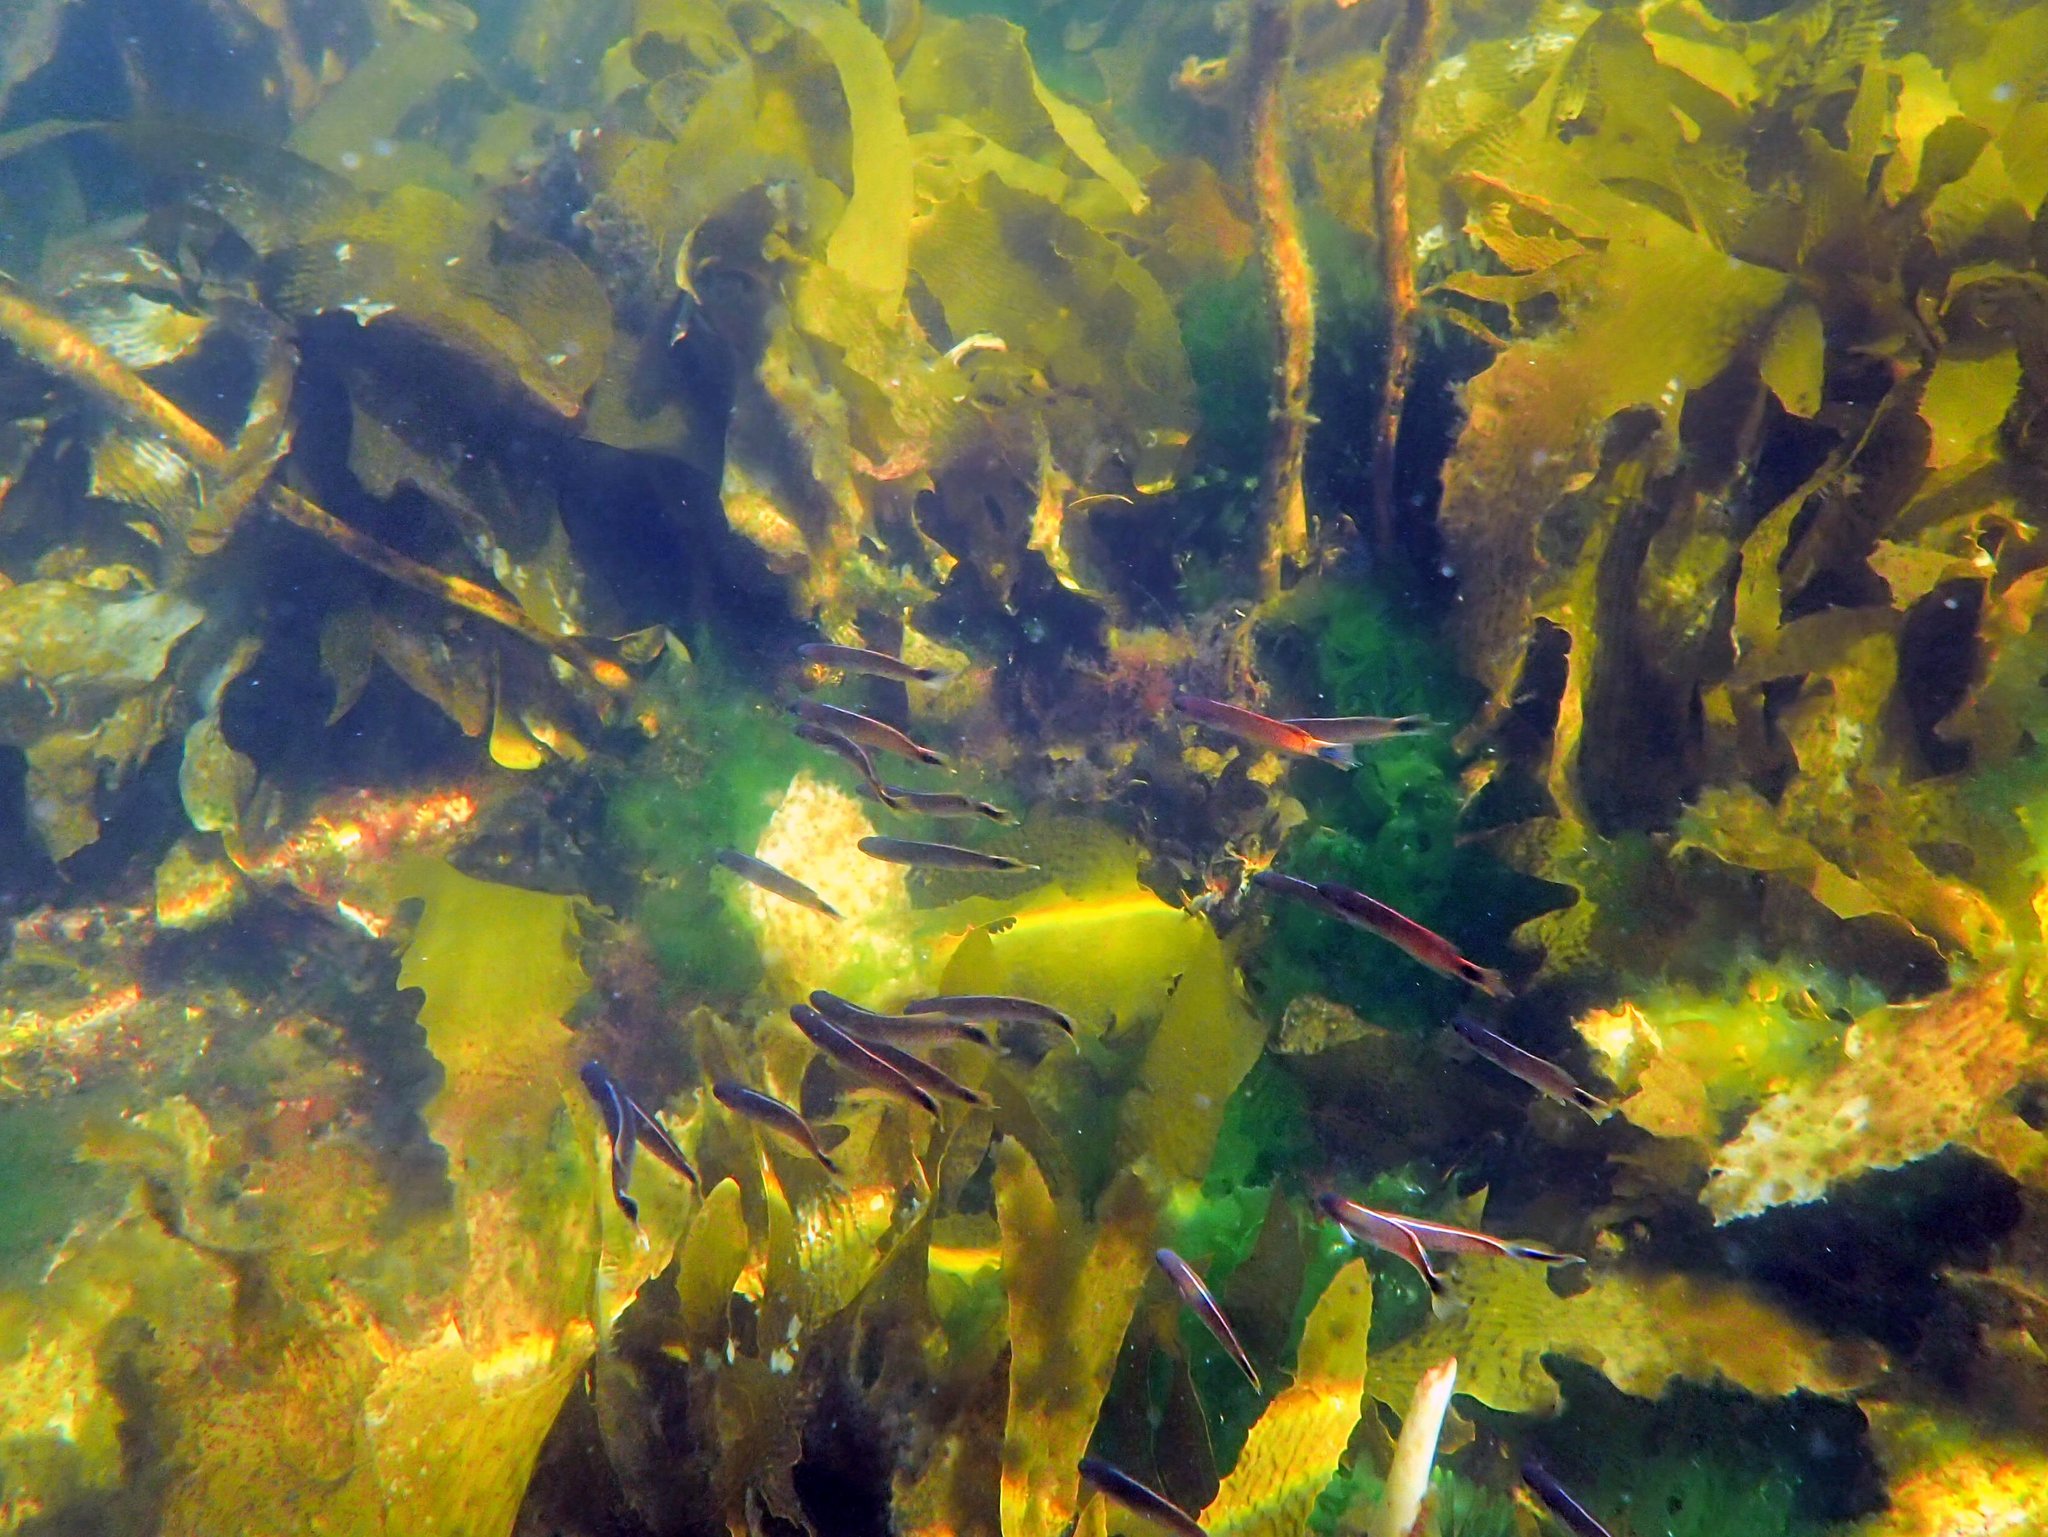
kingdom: Animalia
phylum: Chordata
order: Perciformes
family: Plesiopidae
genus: Trachinops
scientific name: Trachinops caudimaculatus
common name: Blotched-tailed trachinops
